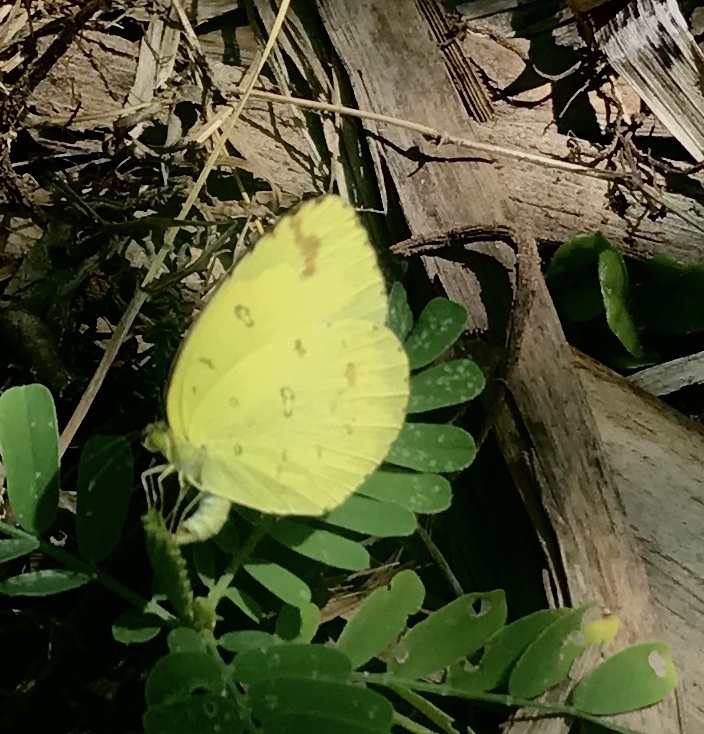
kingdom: Animalia
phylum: Arthropoda
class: Insecta
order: Lepidoptera
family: Pieridae
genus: Eurema
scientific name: Eurema hecabe
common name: Pale grass yellow
